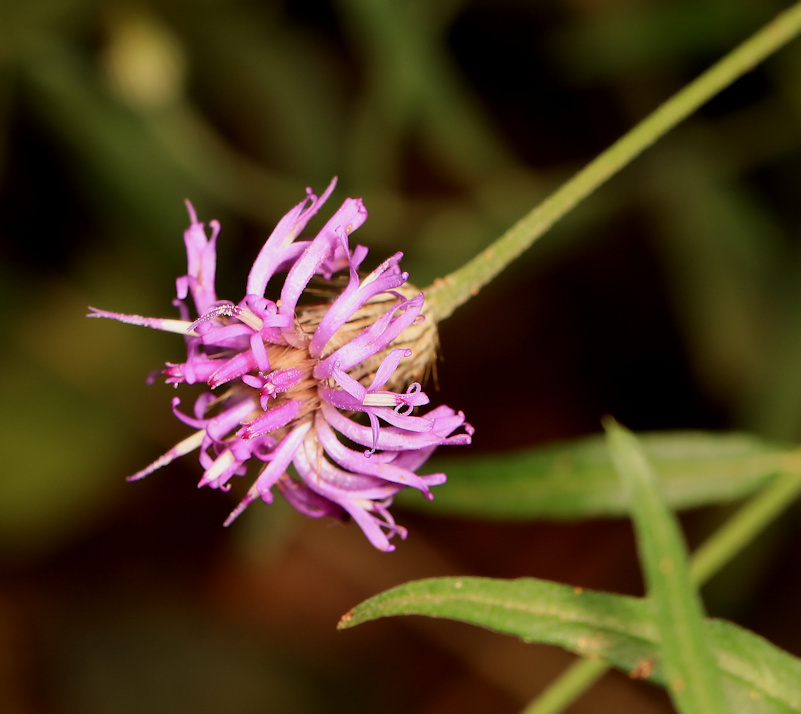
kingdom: Plantae
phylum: Tracheophyta
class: Magnoliopsida
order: Asterales
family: Asteraceae
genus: Parapolydora
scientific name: Parapolydora fastigiata
